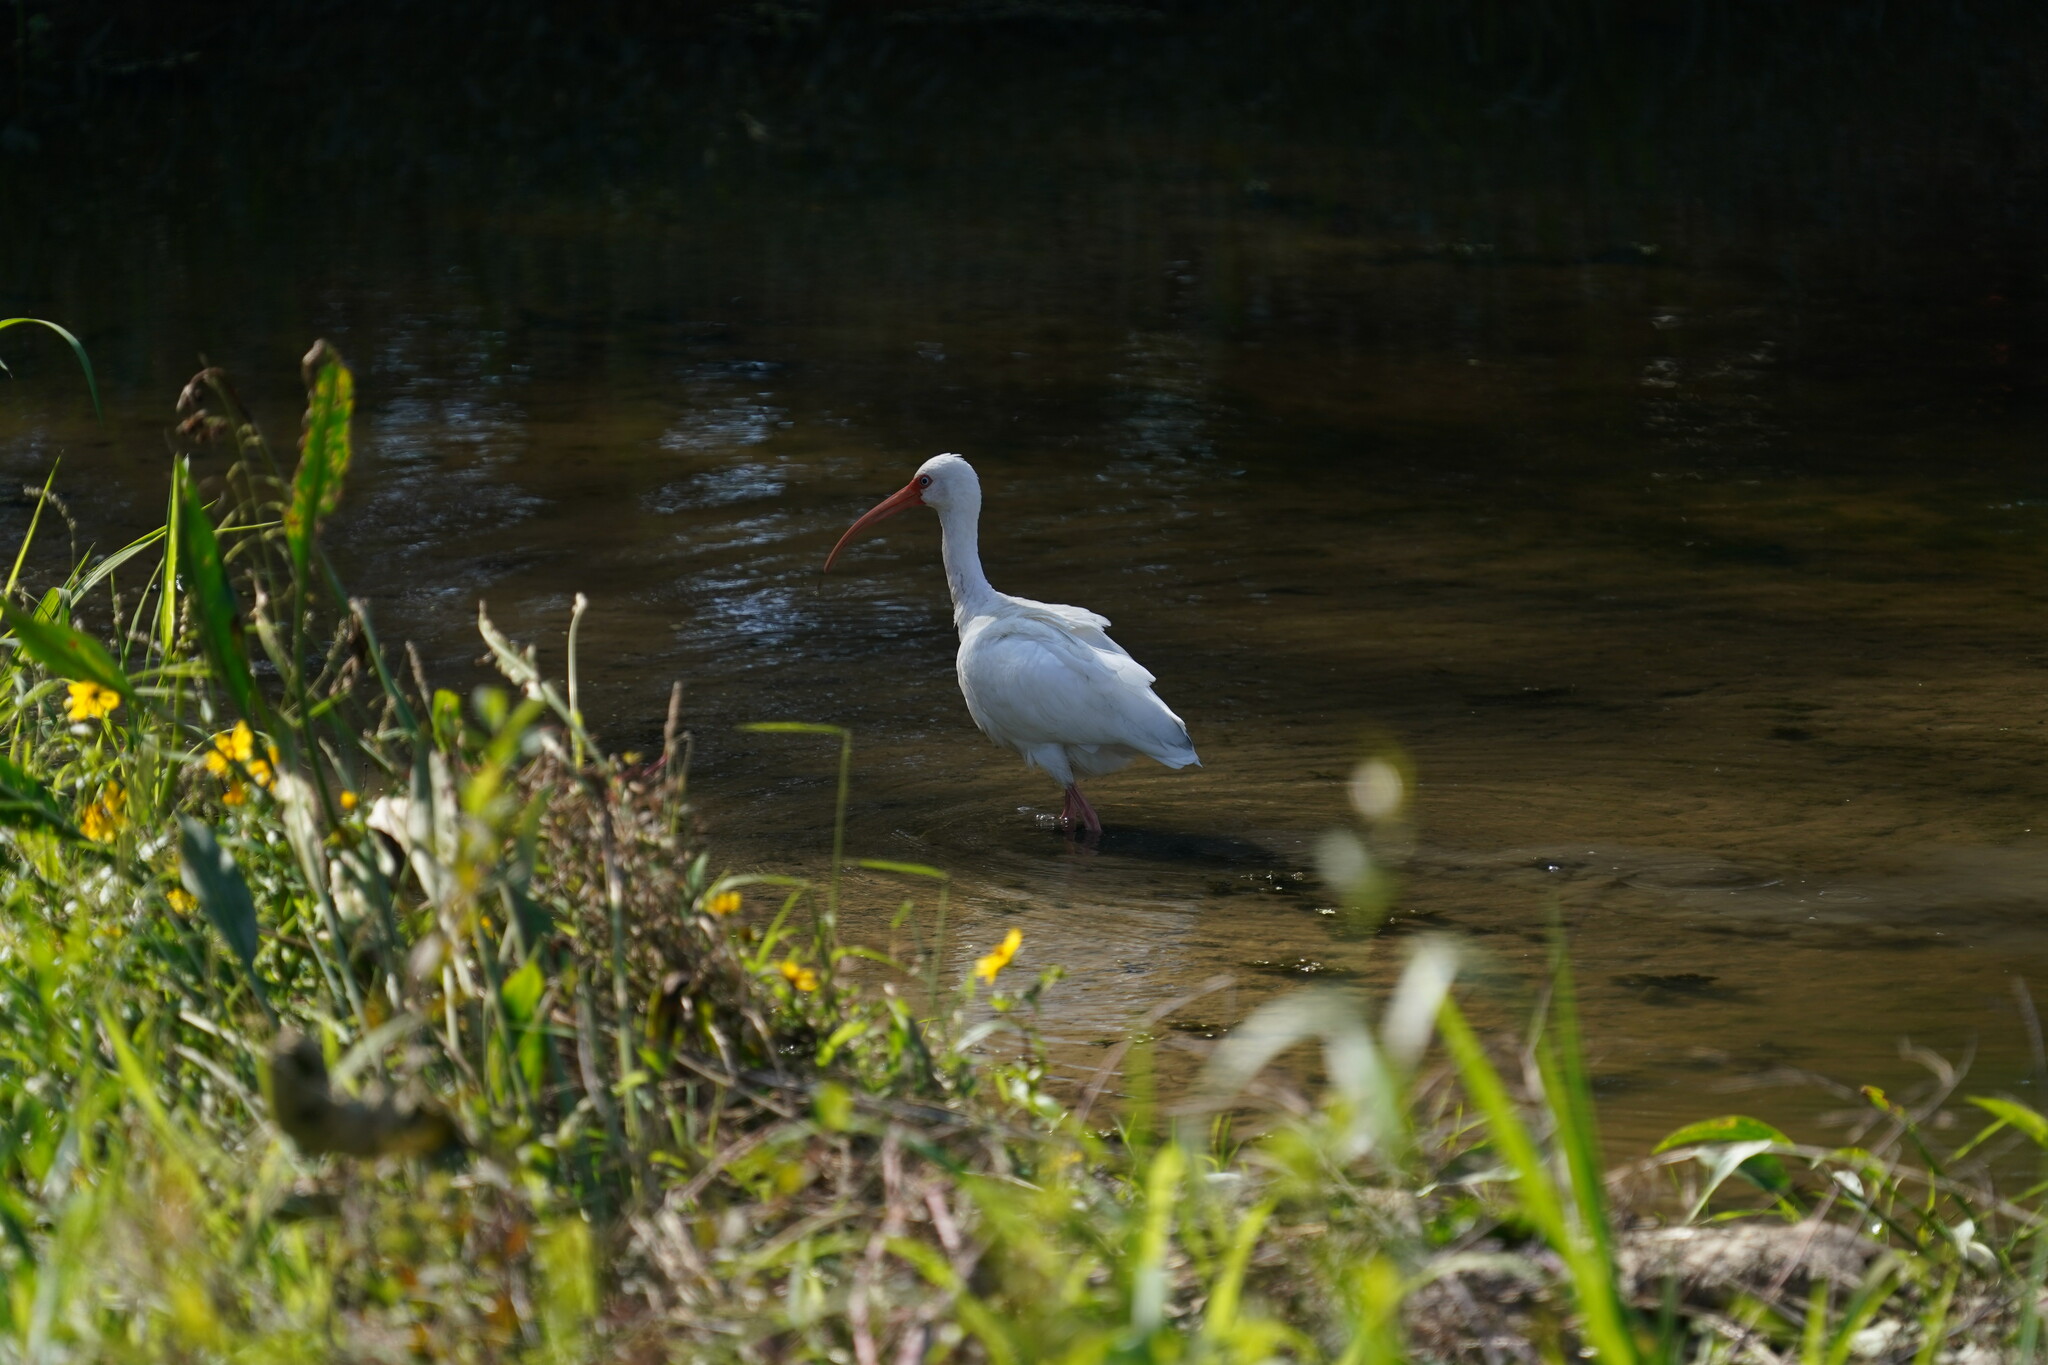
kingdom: Animalia
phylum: Chordata
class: Aves
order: Pelecaniformes
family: Threskiornithidae
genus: Eudocimus
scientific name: Eudocimus albus
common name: White ibis
